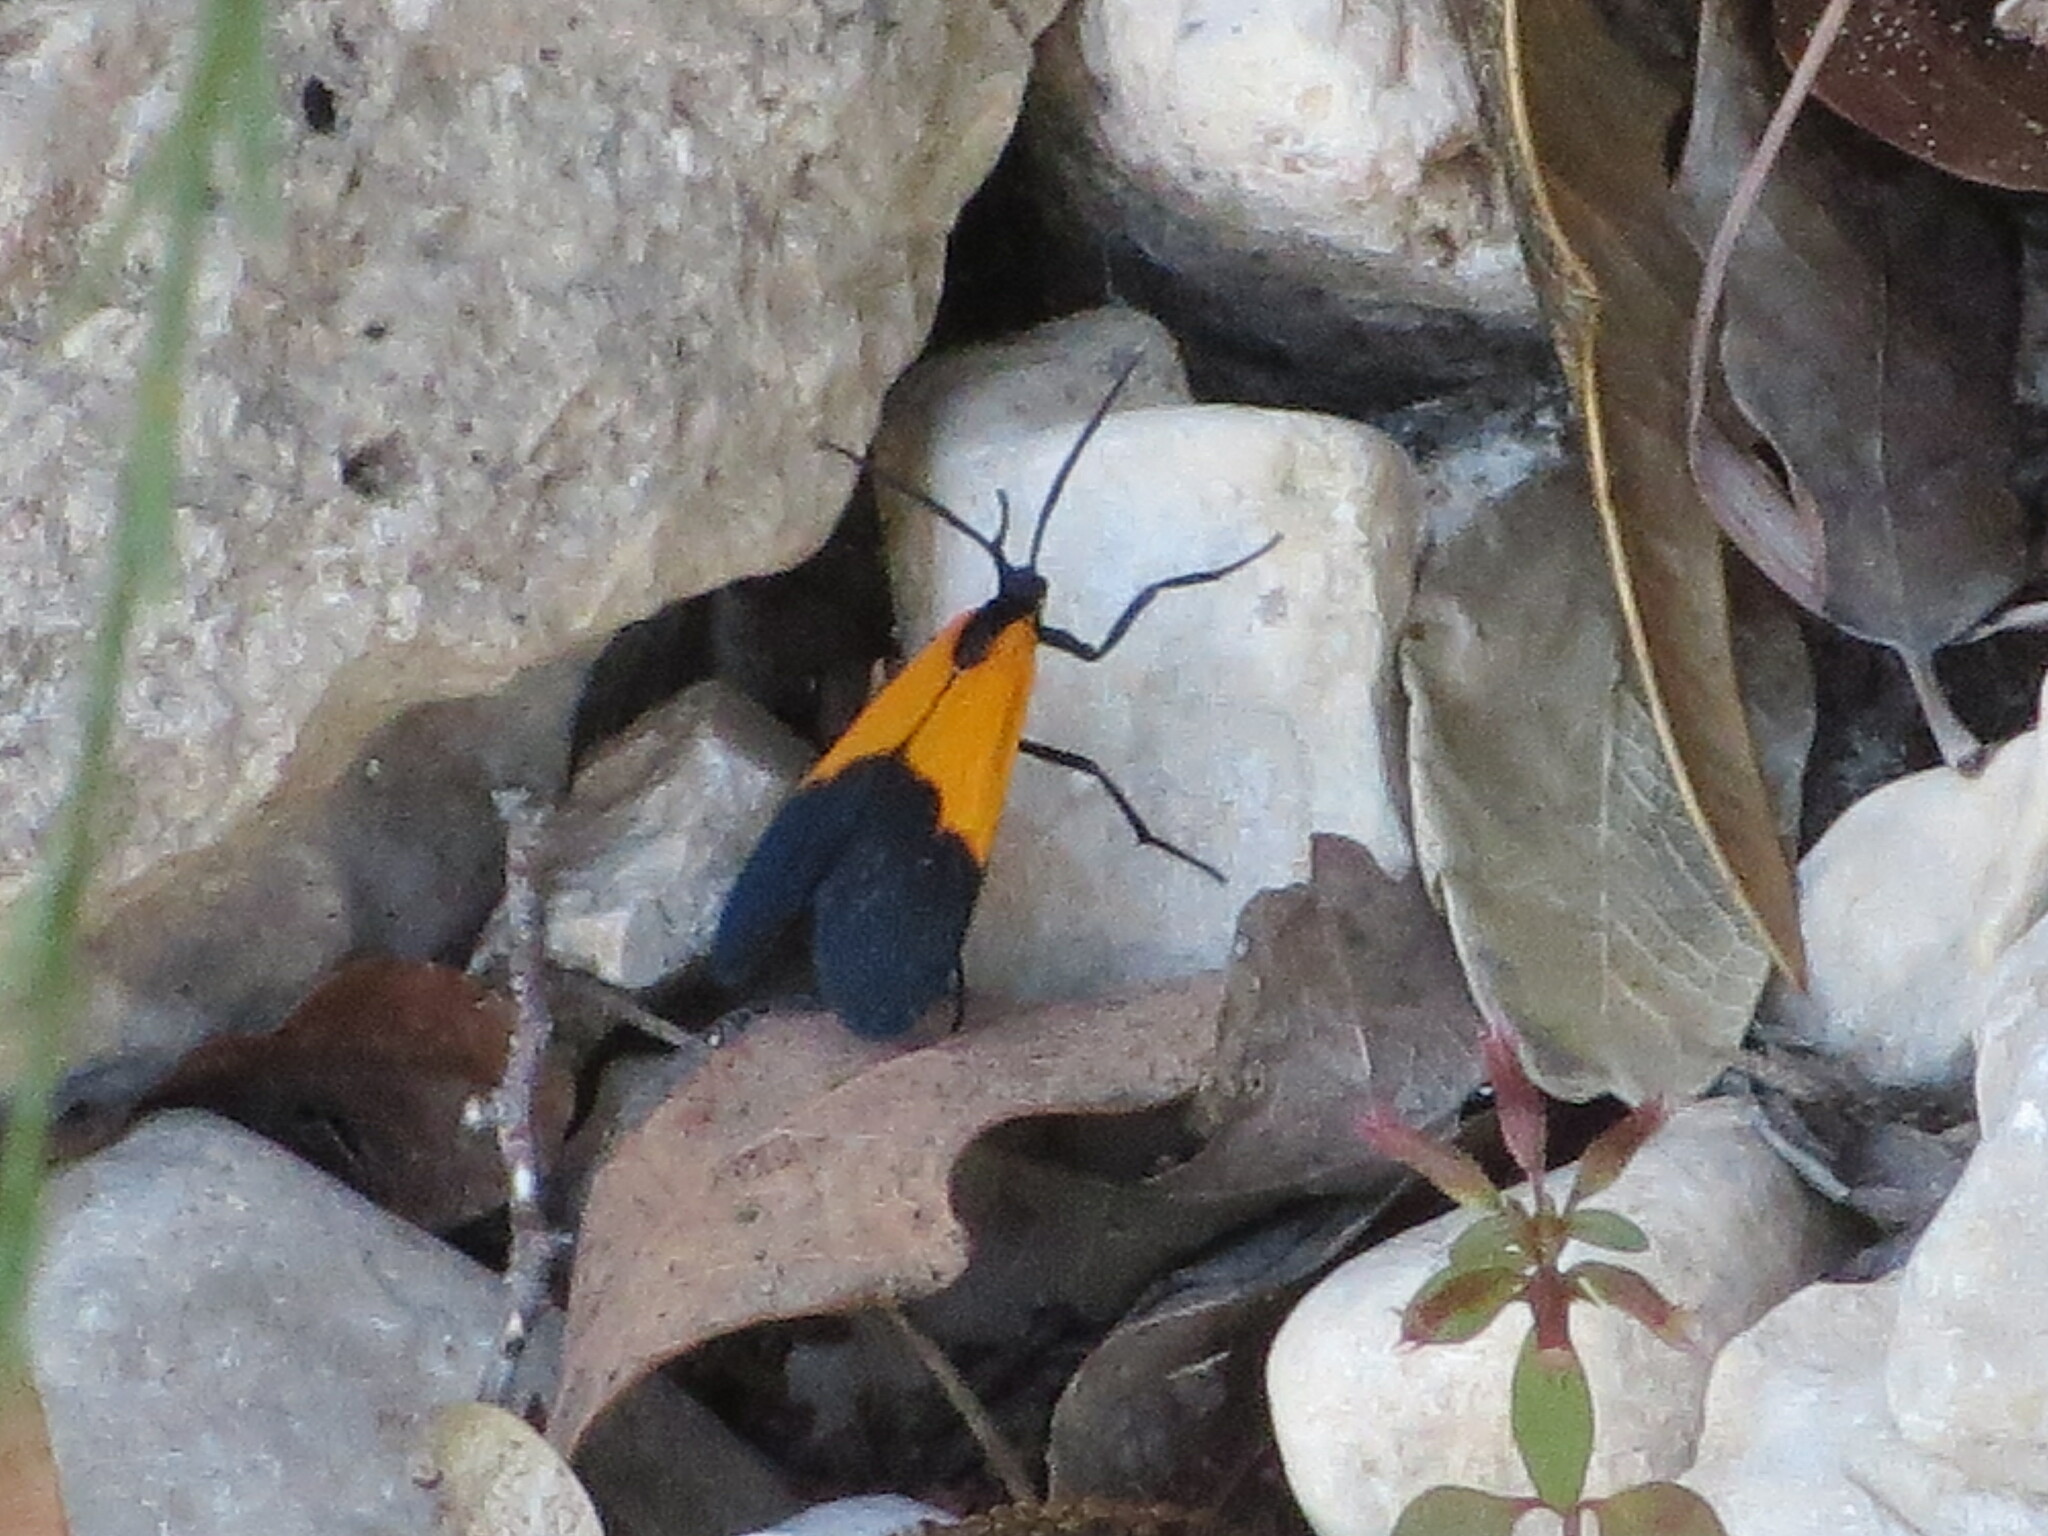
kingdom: Animalia
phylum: Arthropoda
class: Insecta
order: Lepidoptera
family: Erebidae
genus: Lycomorpha
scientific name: Lycomorpha pholus
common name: Black-and-yellow lichen moth
